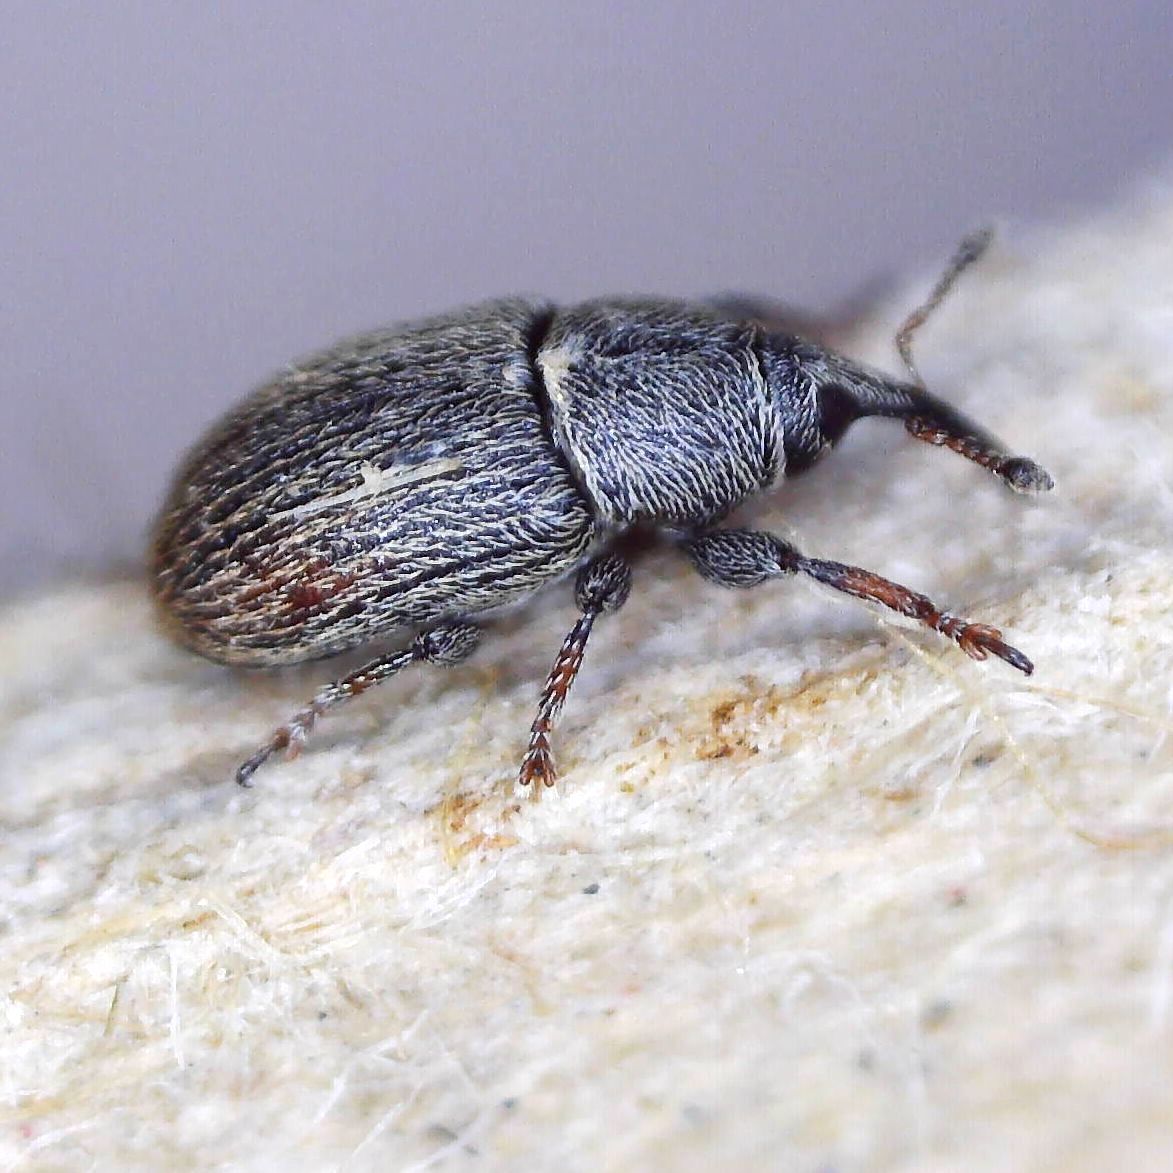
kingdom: Animalia
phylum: Arthropoda
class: Insecta
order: Coleoptera
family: Curculionidae
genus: Mecinus
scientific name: Mecinus pascuorum
